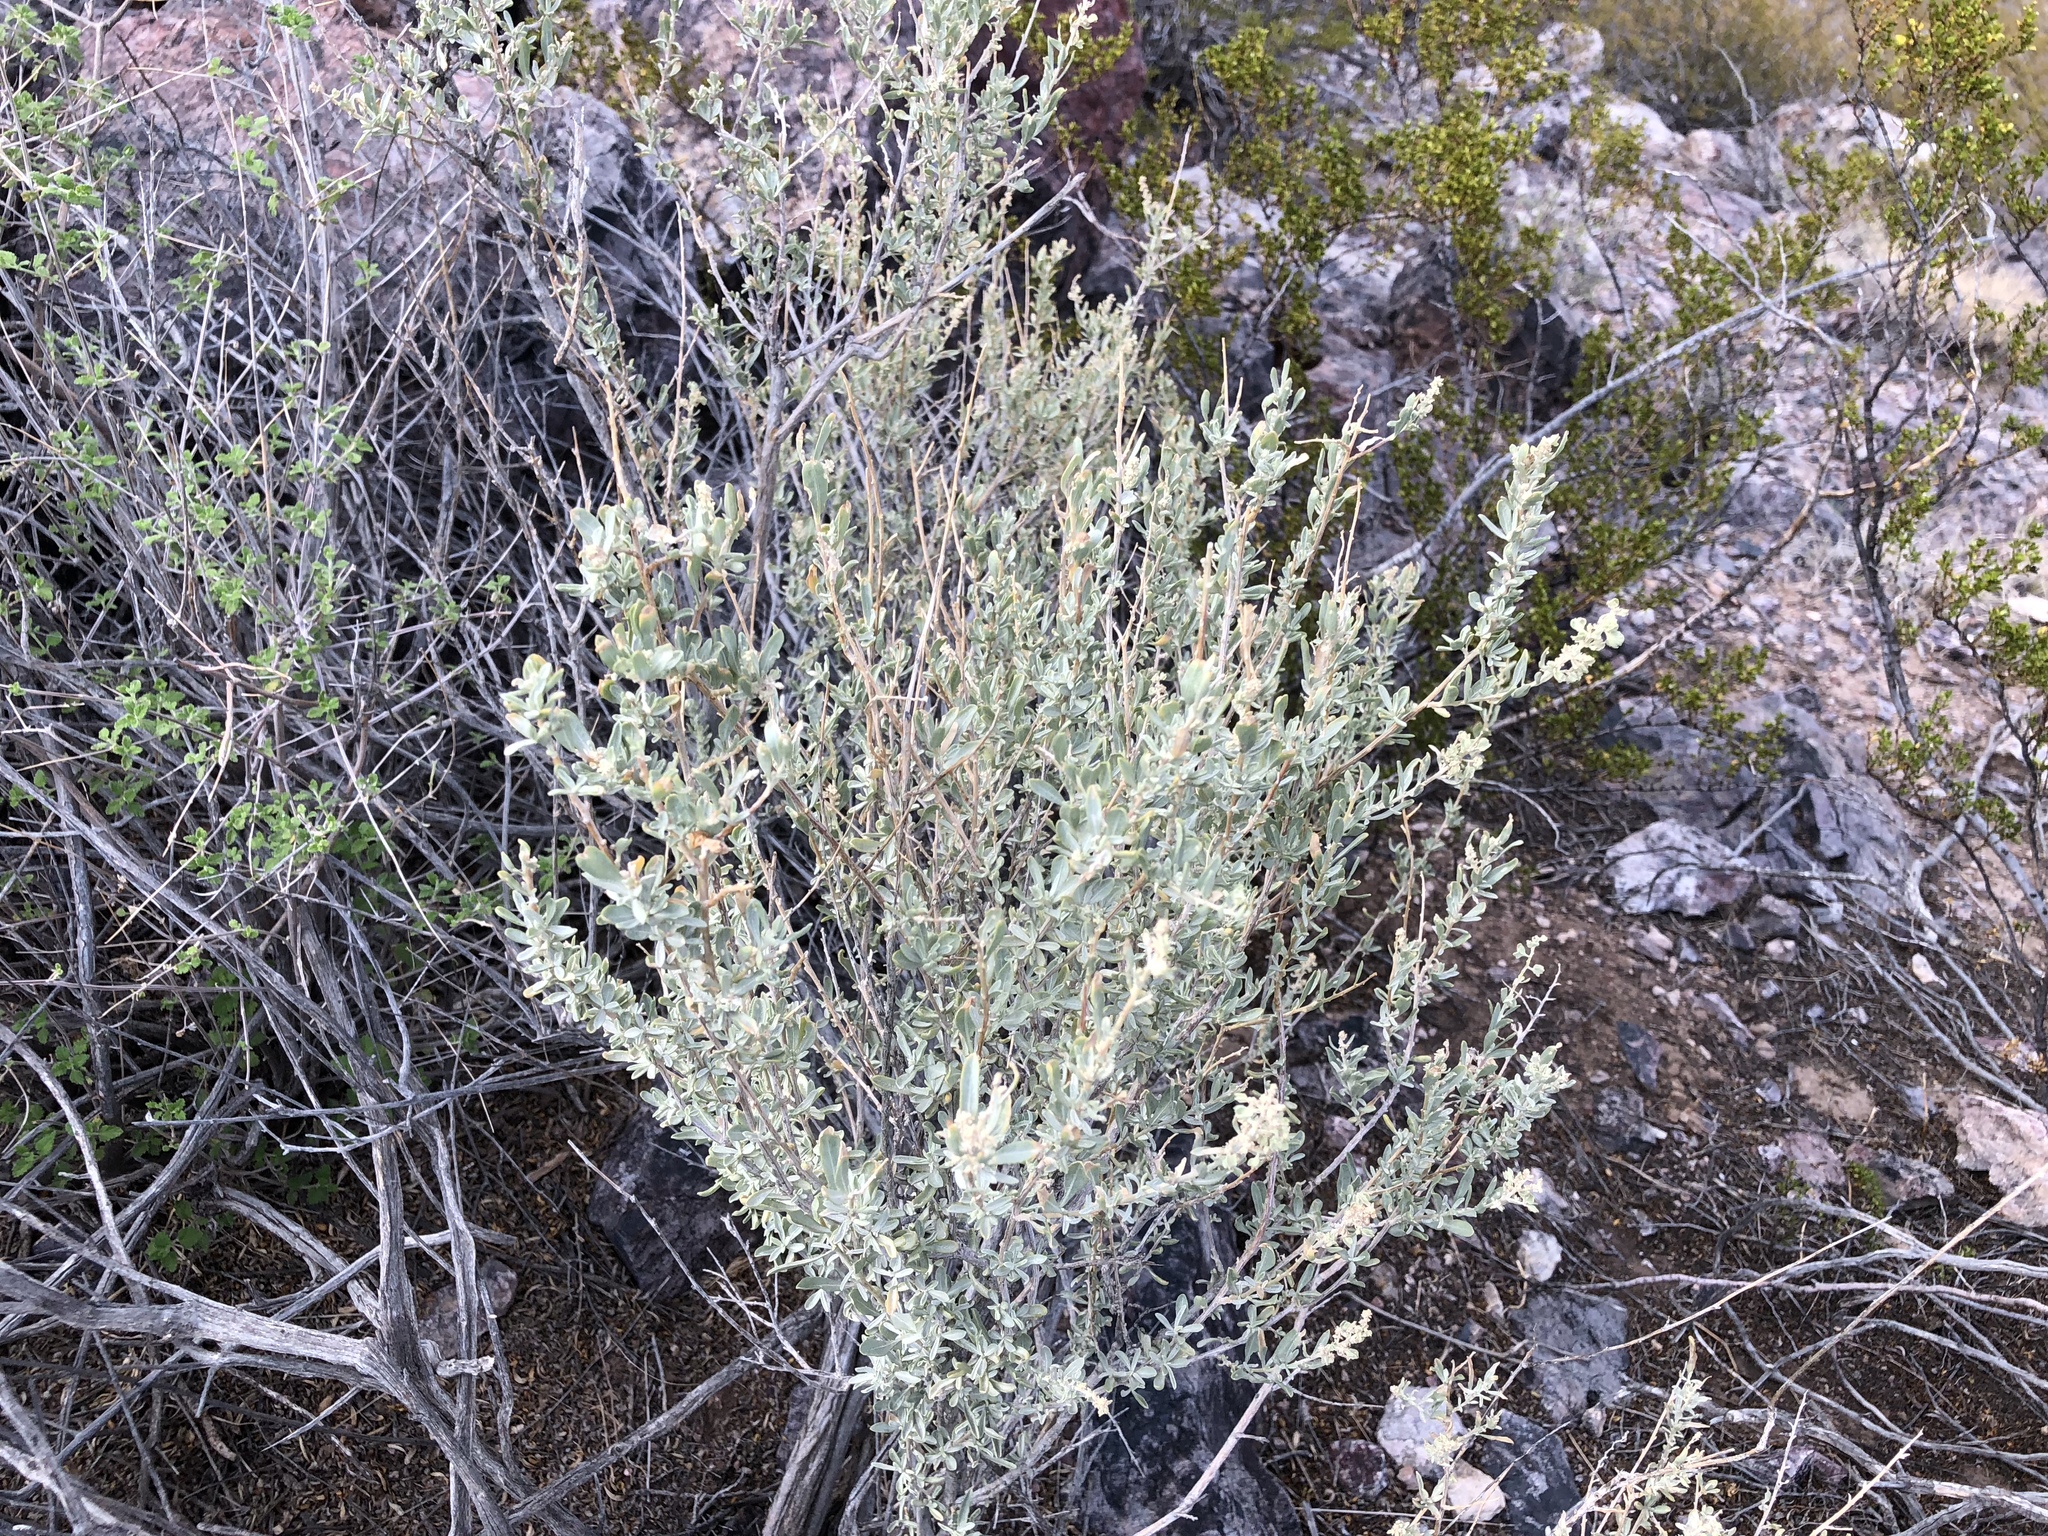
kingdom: Plantae
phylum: Tracheophyta
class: Magnoliopsida
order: Caryophyllales
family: Amaranthaceae
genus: Atriplex
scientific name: Atriplex canescens
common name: Four-wing saltbush
